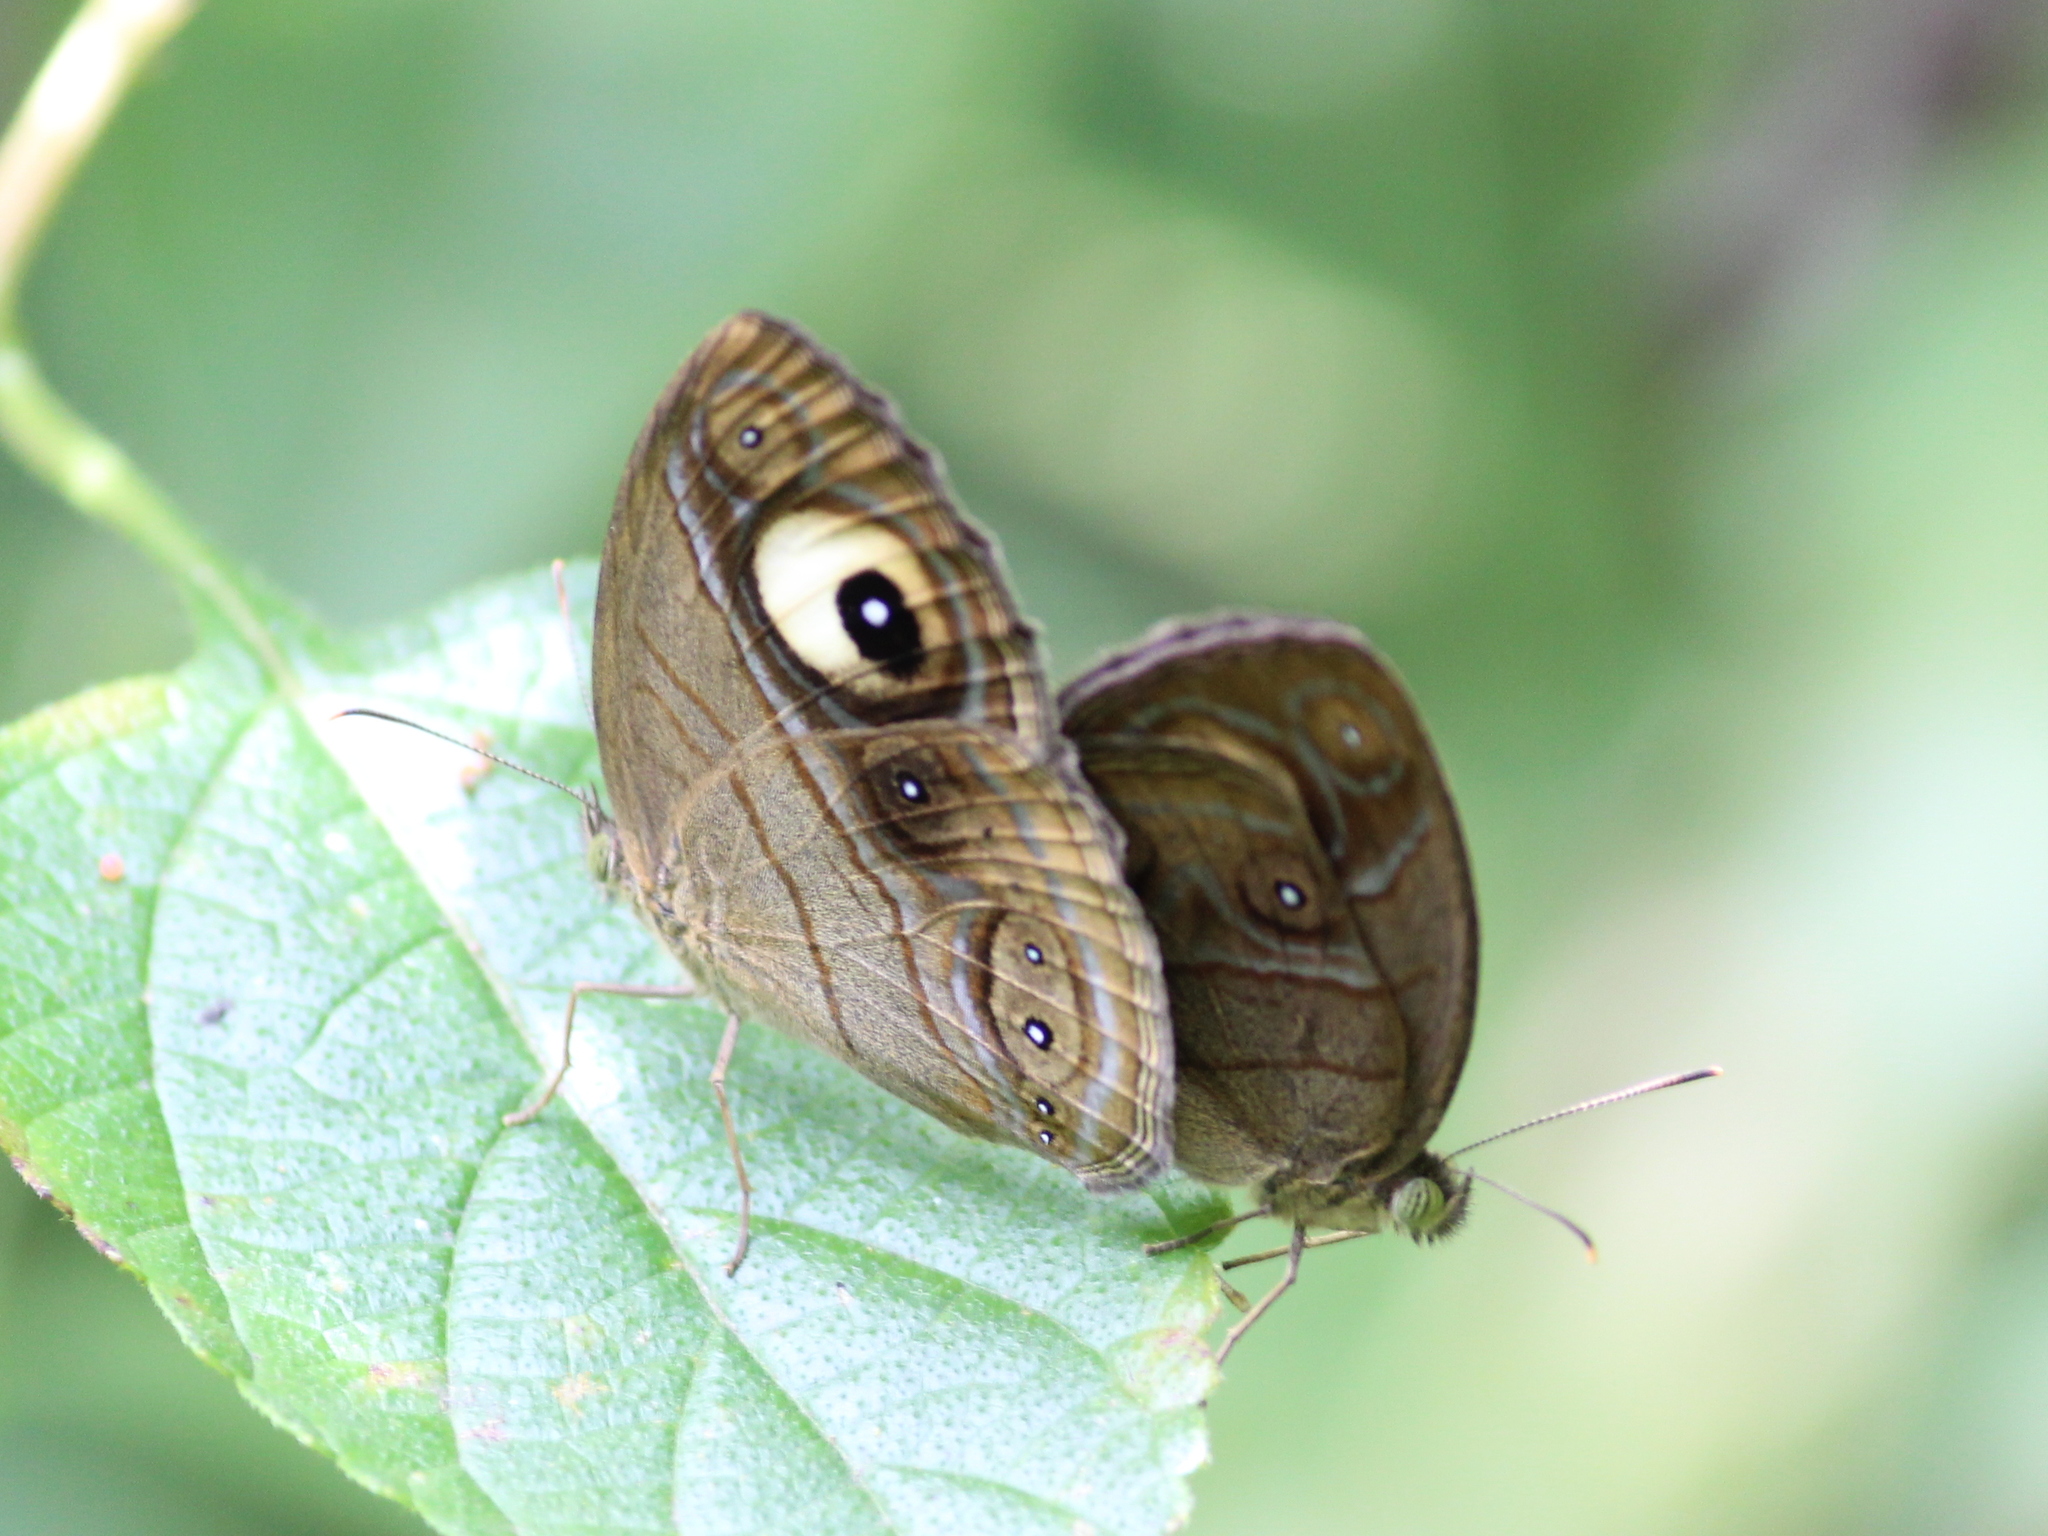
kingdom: Animalia
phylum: Arthropoda
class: Insecta
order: Lepidoptera
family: Nymphalidae
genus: Mycalesis
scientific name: Mycalesis patnia
